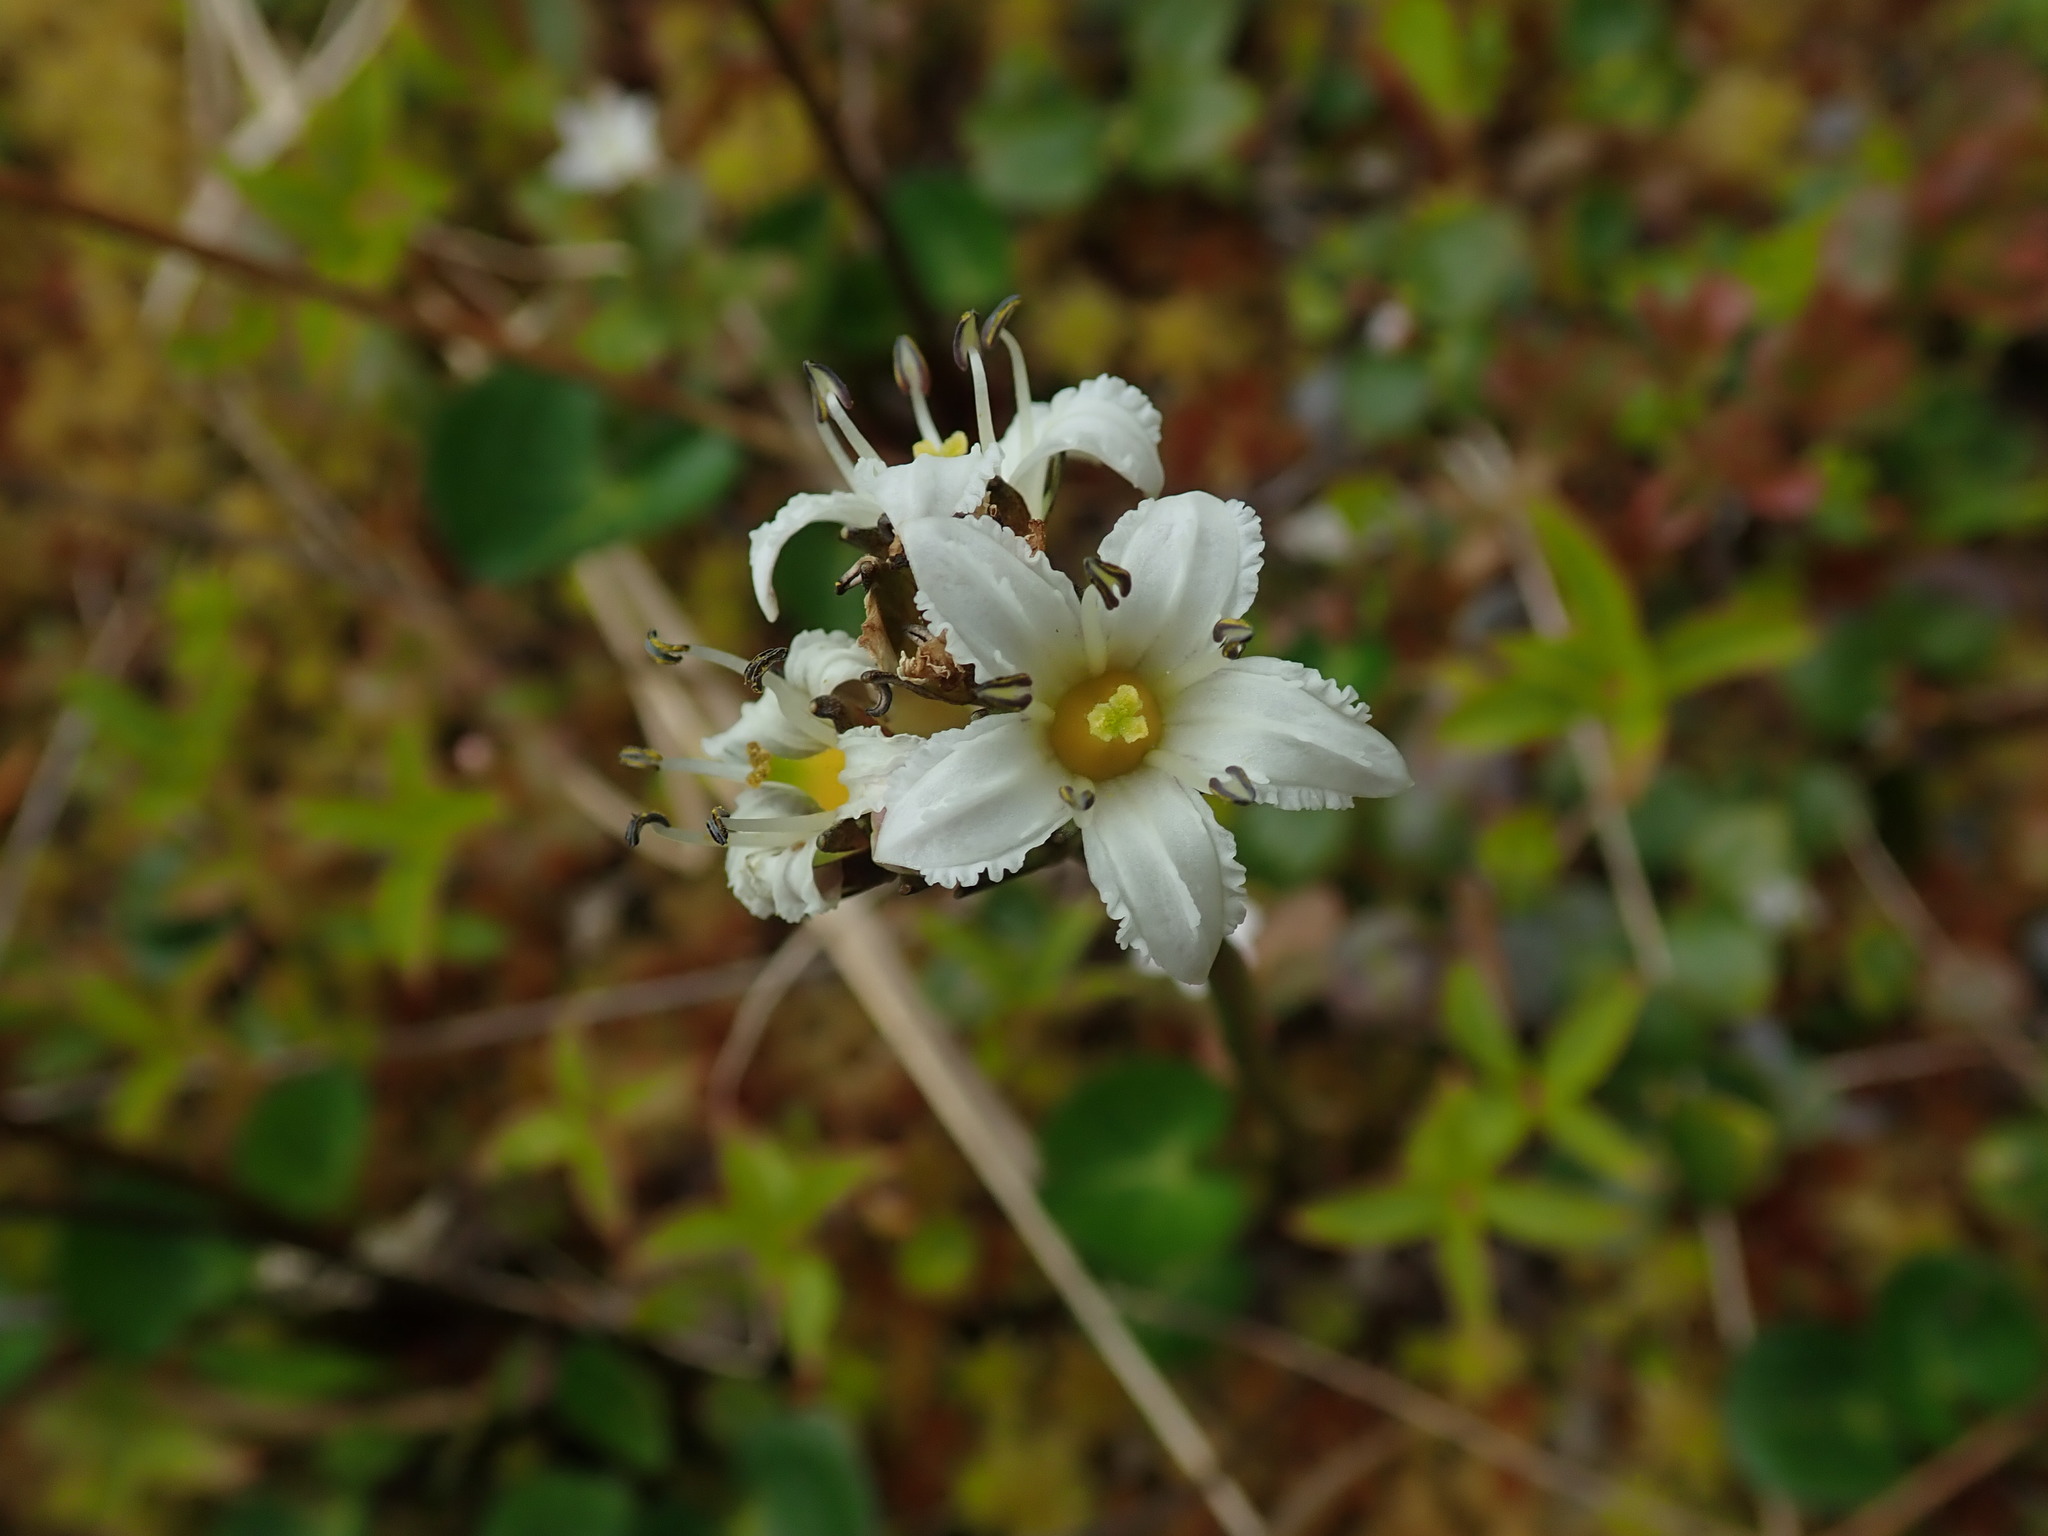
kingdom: Plantae
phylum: Tracheophyta
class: Magnoliopsida
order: Asterales
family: Menyanthaceae
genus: Nephrophyllidium
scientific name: Nephrophyllidium crista-galli
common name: Deer-cabbage
